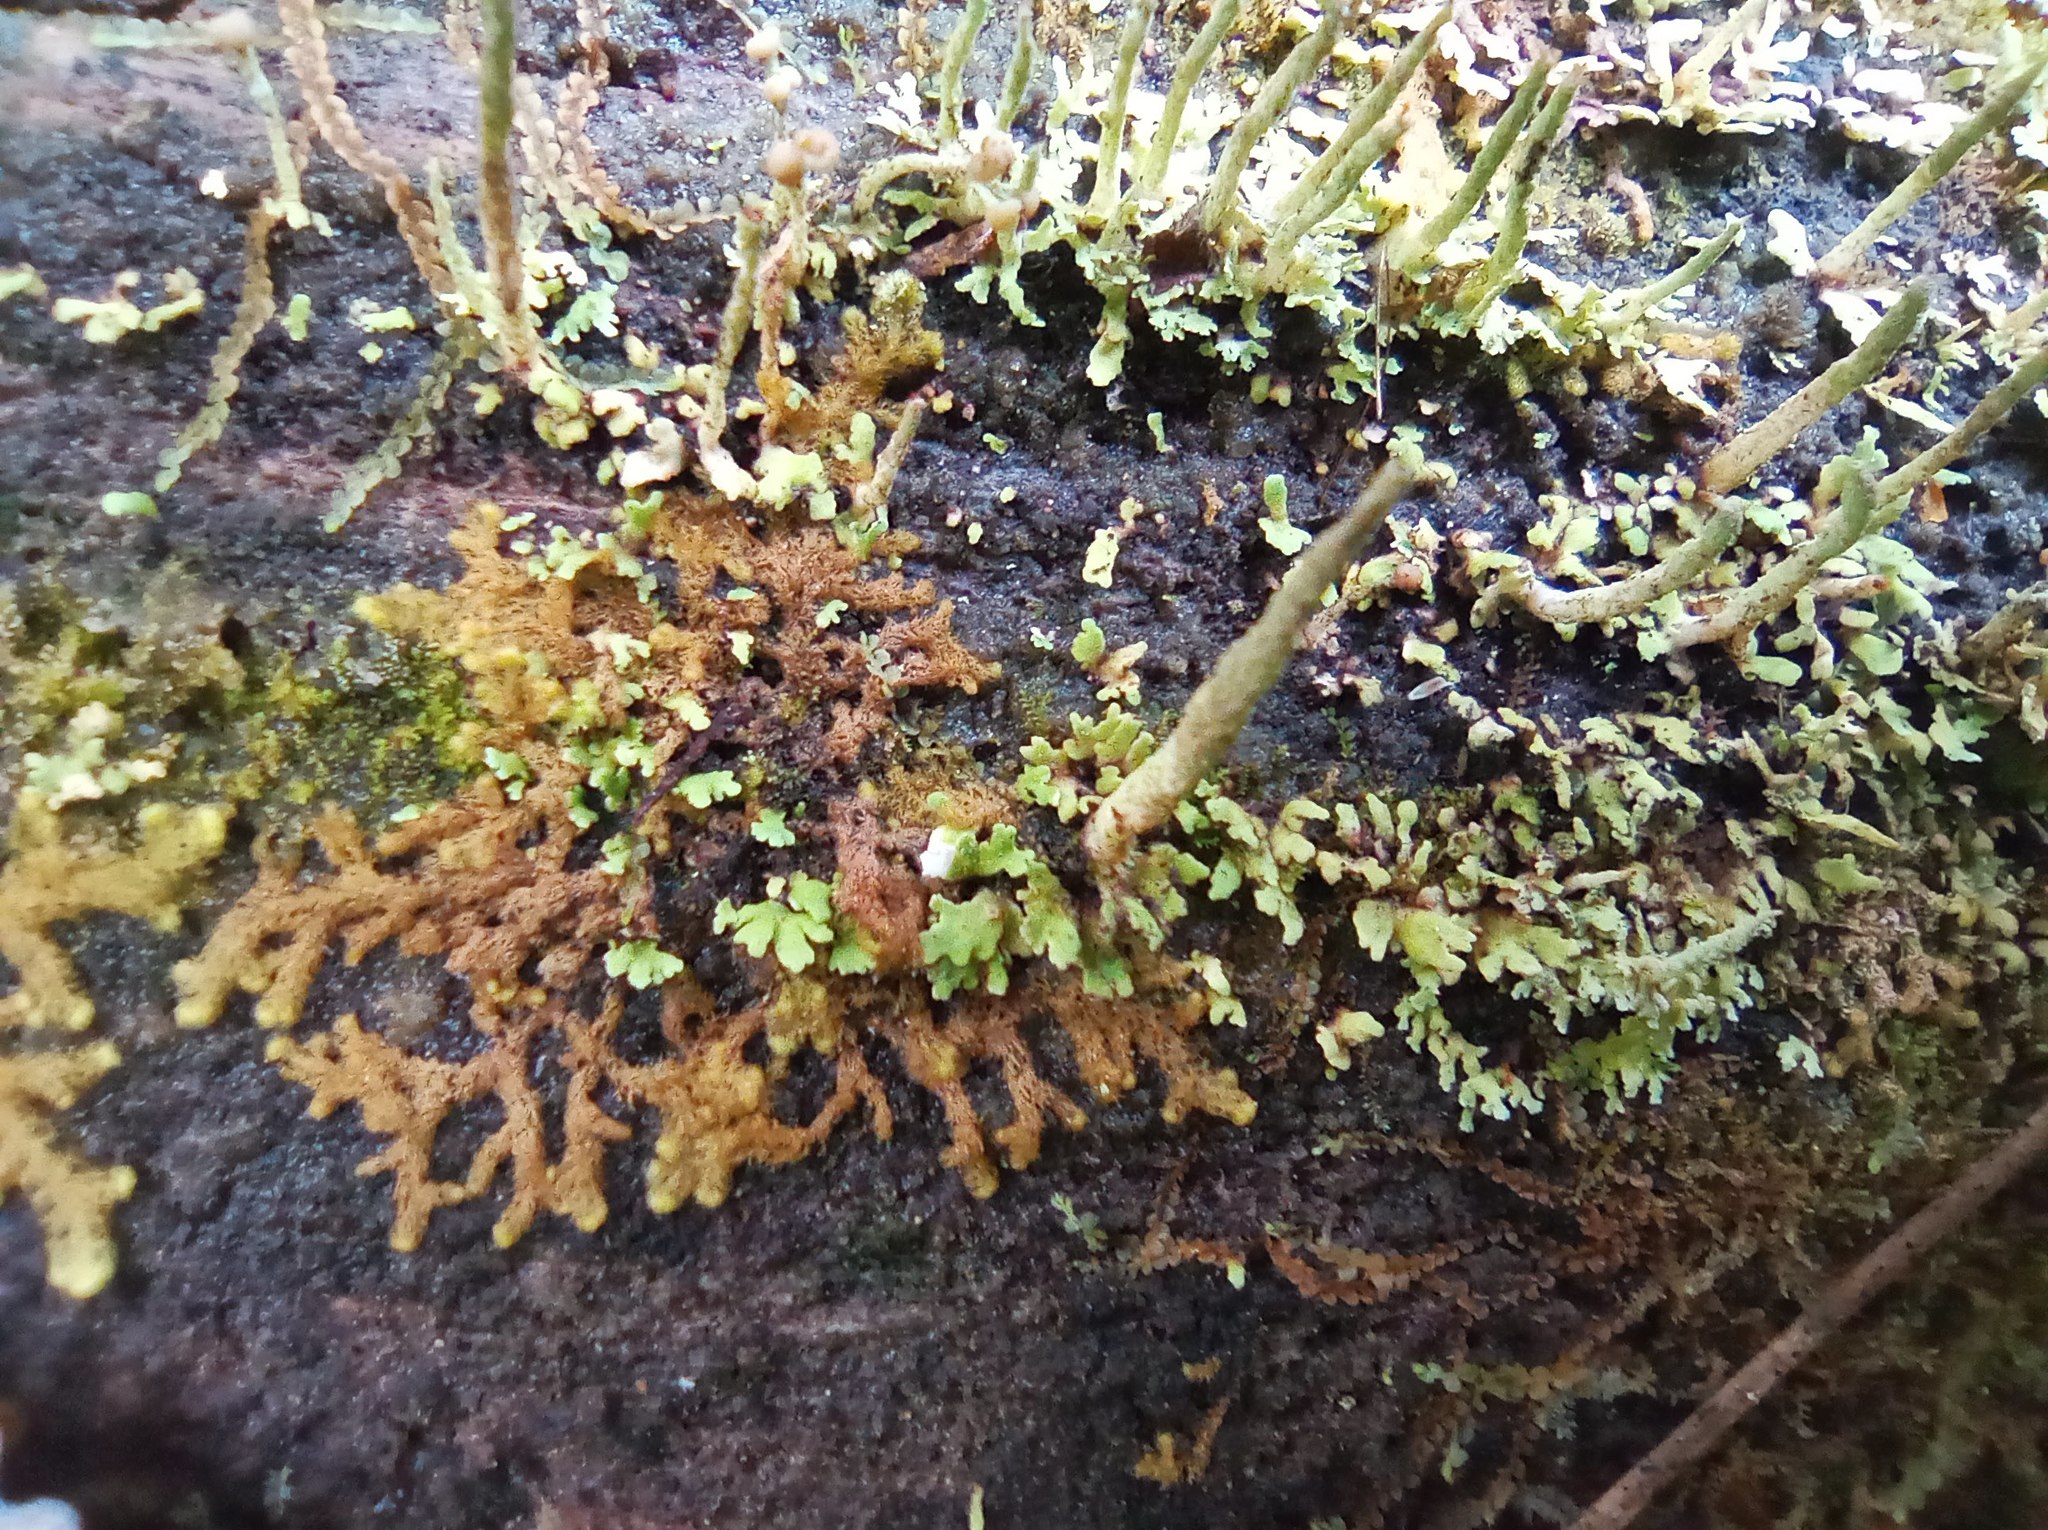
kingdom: Plantae
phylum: Marchantiophyta
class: Jungermanniopsida
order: Ptilidiales
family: Ptilidiaceae
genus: Ptilidium
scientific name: Ptilidium pulcherrimum
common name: Tree fringewort
